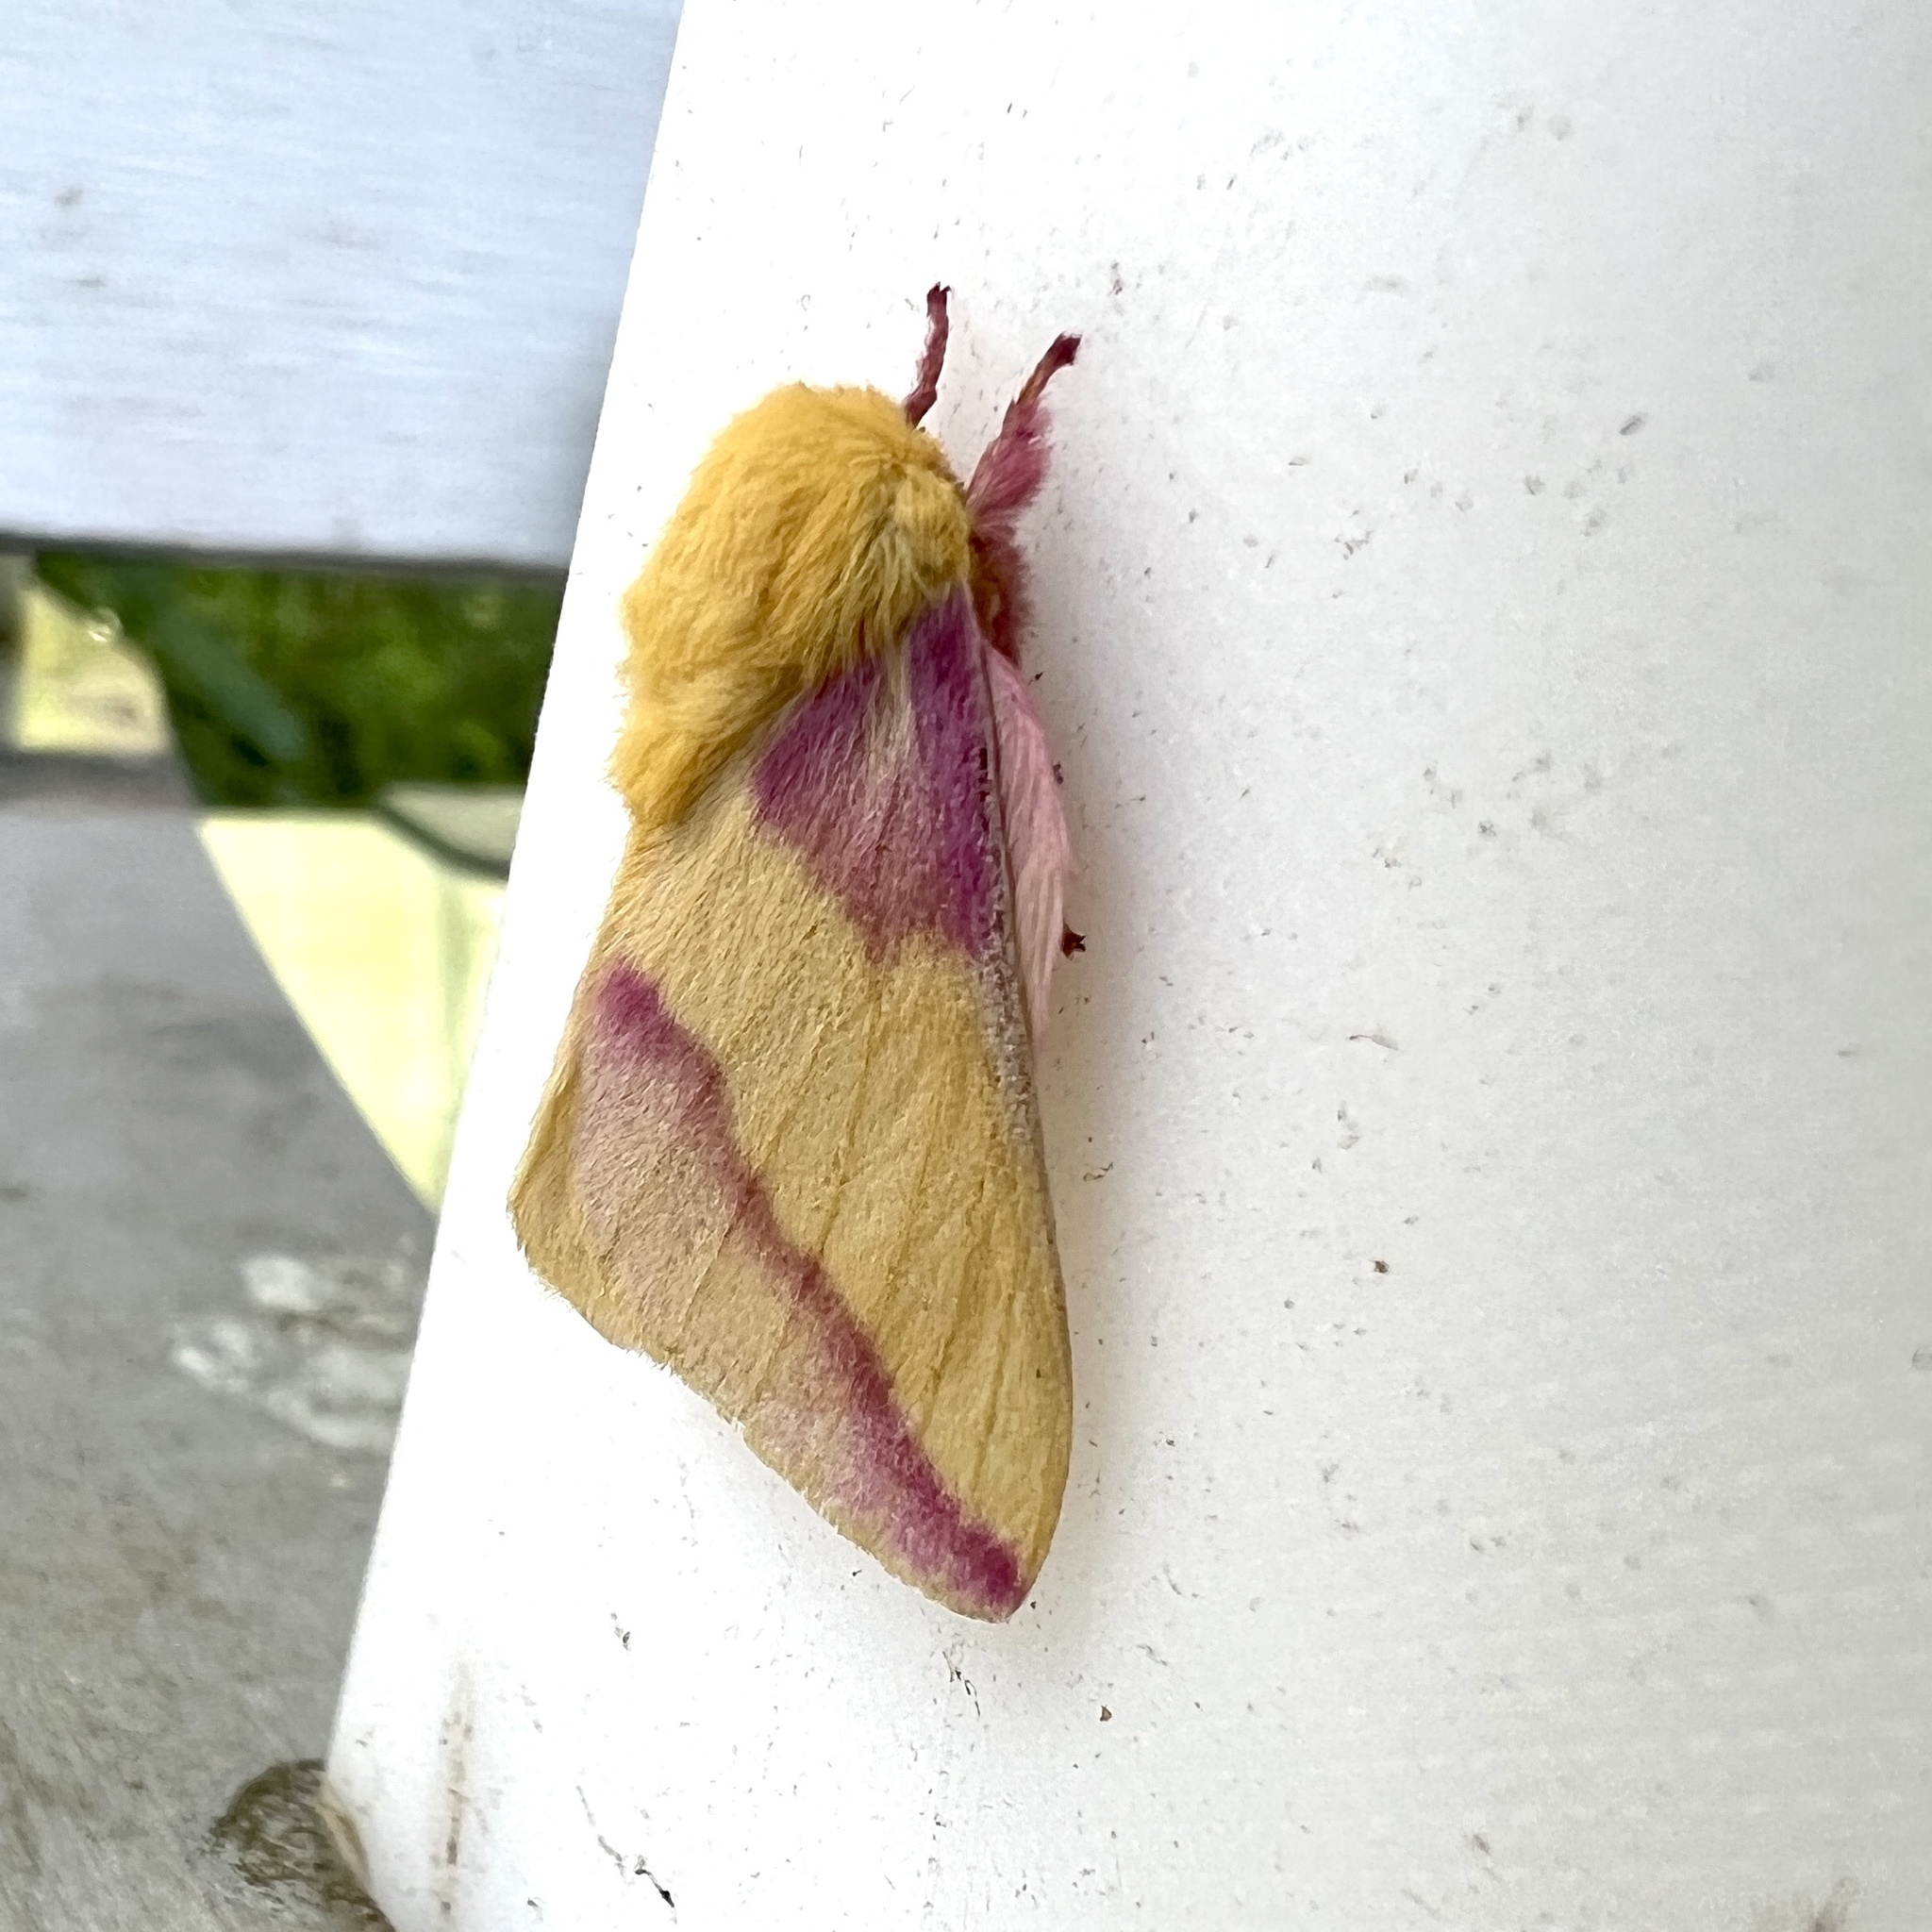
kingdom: Animalia
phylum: Arthropoda
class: Insecta
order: Lepidoptera
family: Saturniidae
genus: Dryocampa
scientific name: Dryocampa rubicunda
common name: Rosy maple moth
